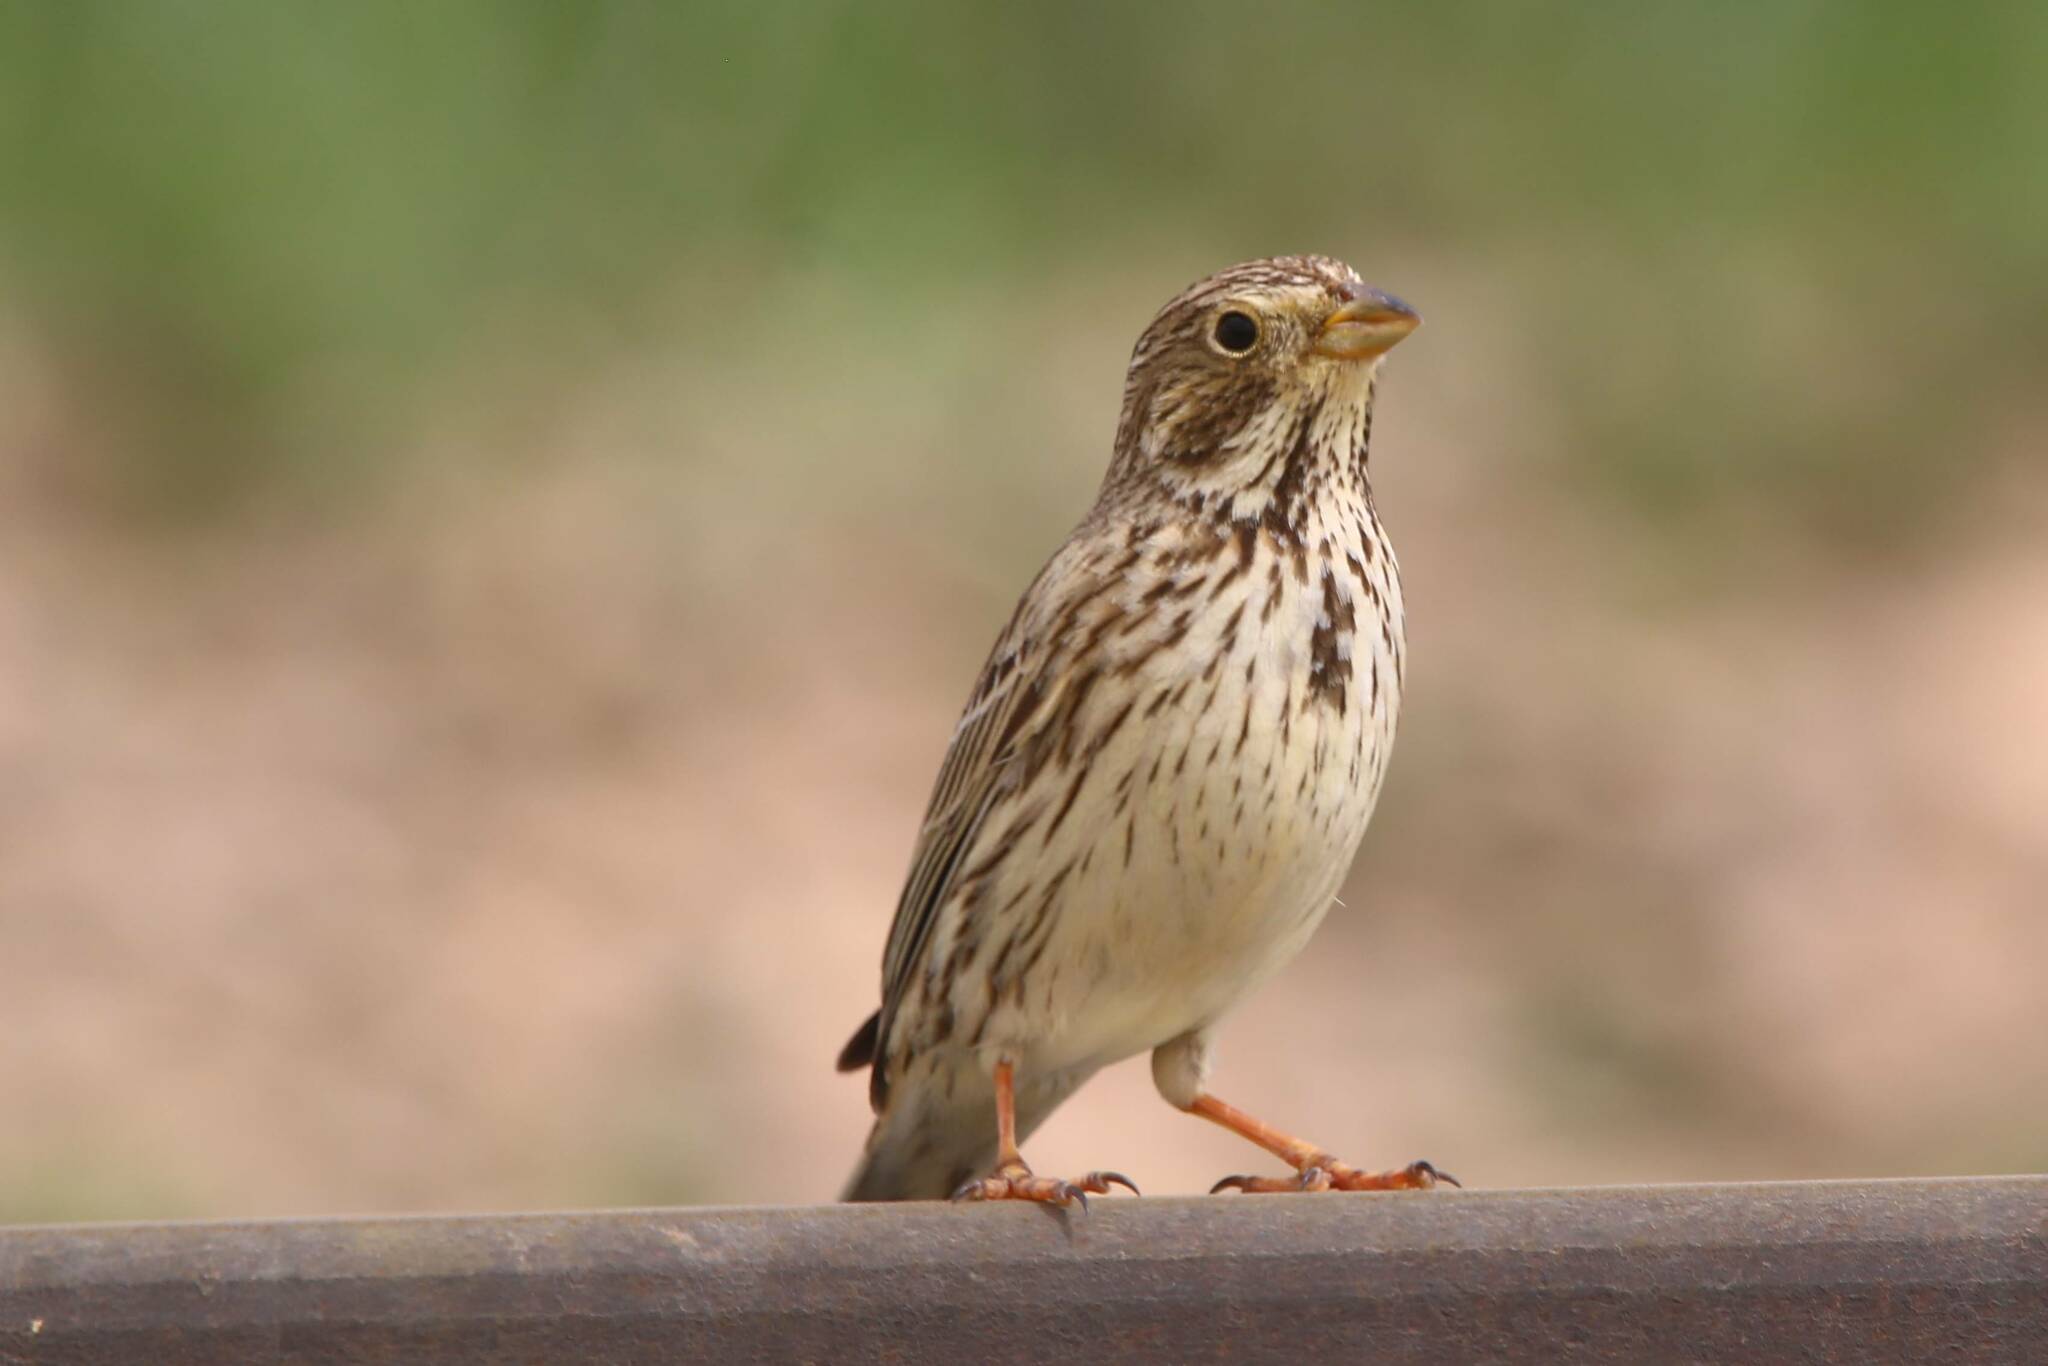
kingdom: Animalia
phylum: Chordata
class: Aves
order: Passeriformes
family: Emberizidae
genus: Emberiza
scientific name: Emberiza calandra
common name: Corn bunting
